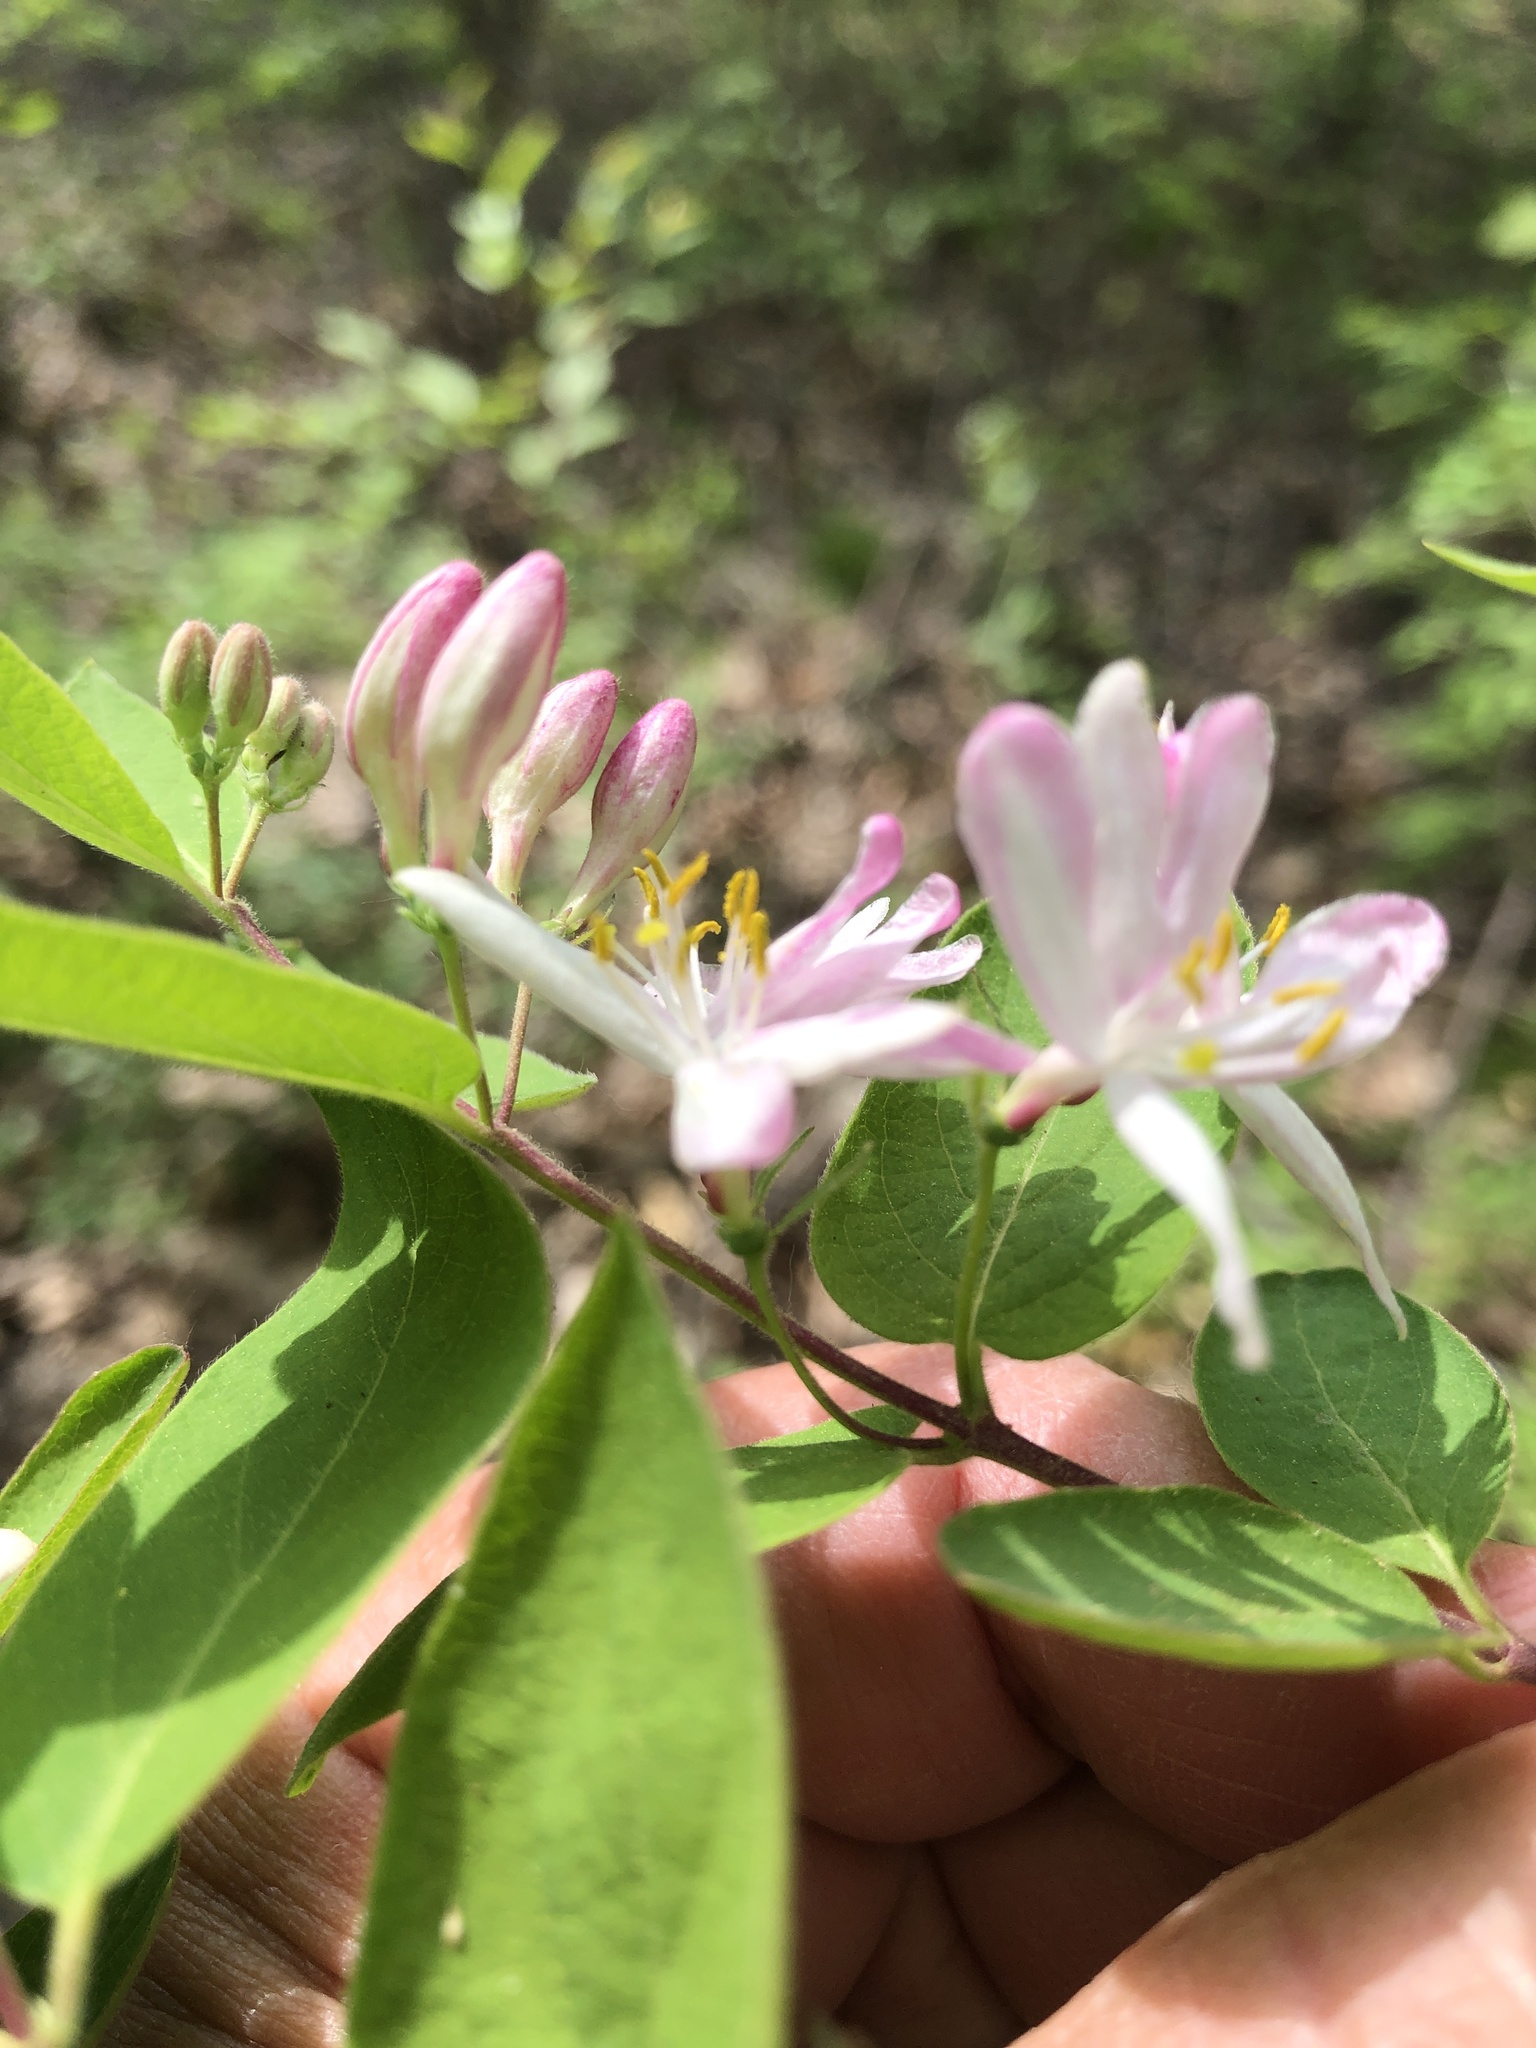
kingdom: Plantae
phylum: Tracheophyta
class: Magnoliopsida
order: Dipsacales
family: Caprifoliaceae
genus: Lonicera
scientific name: Lonicera morrowii
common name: Morrow's honeysuckle
